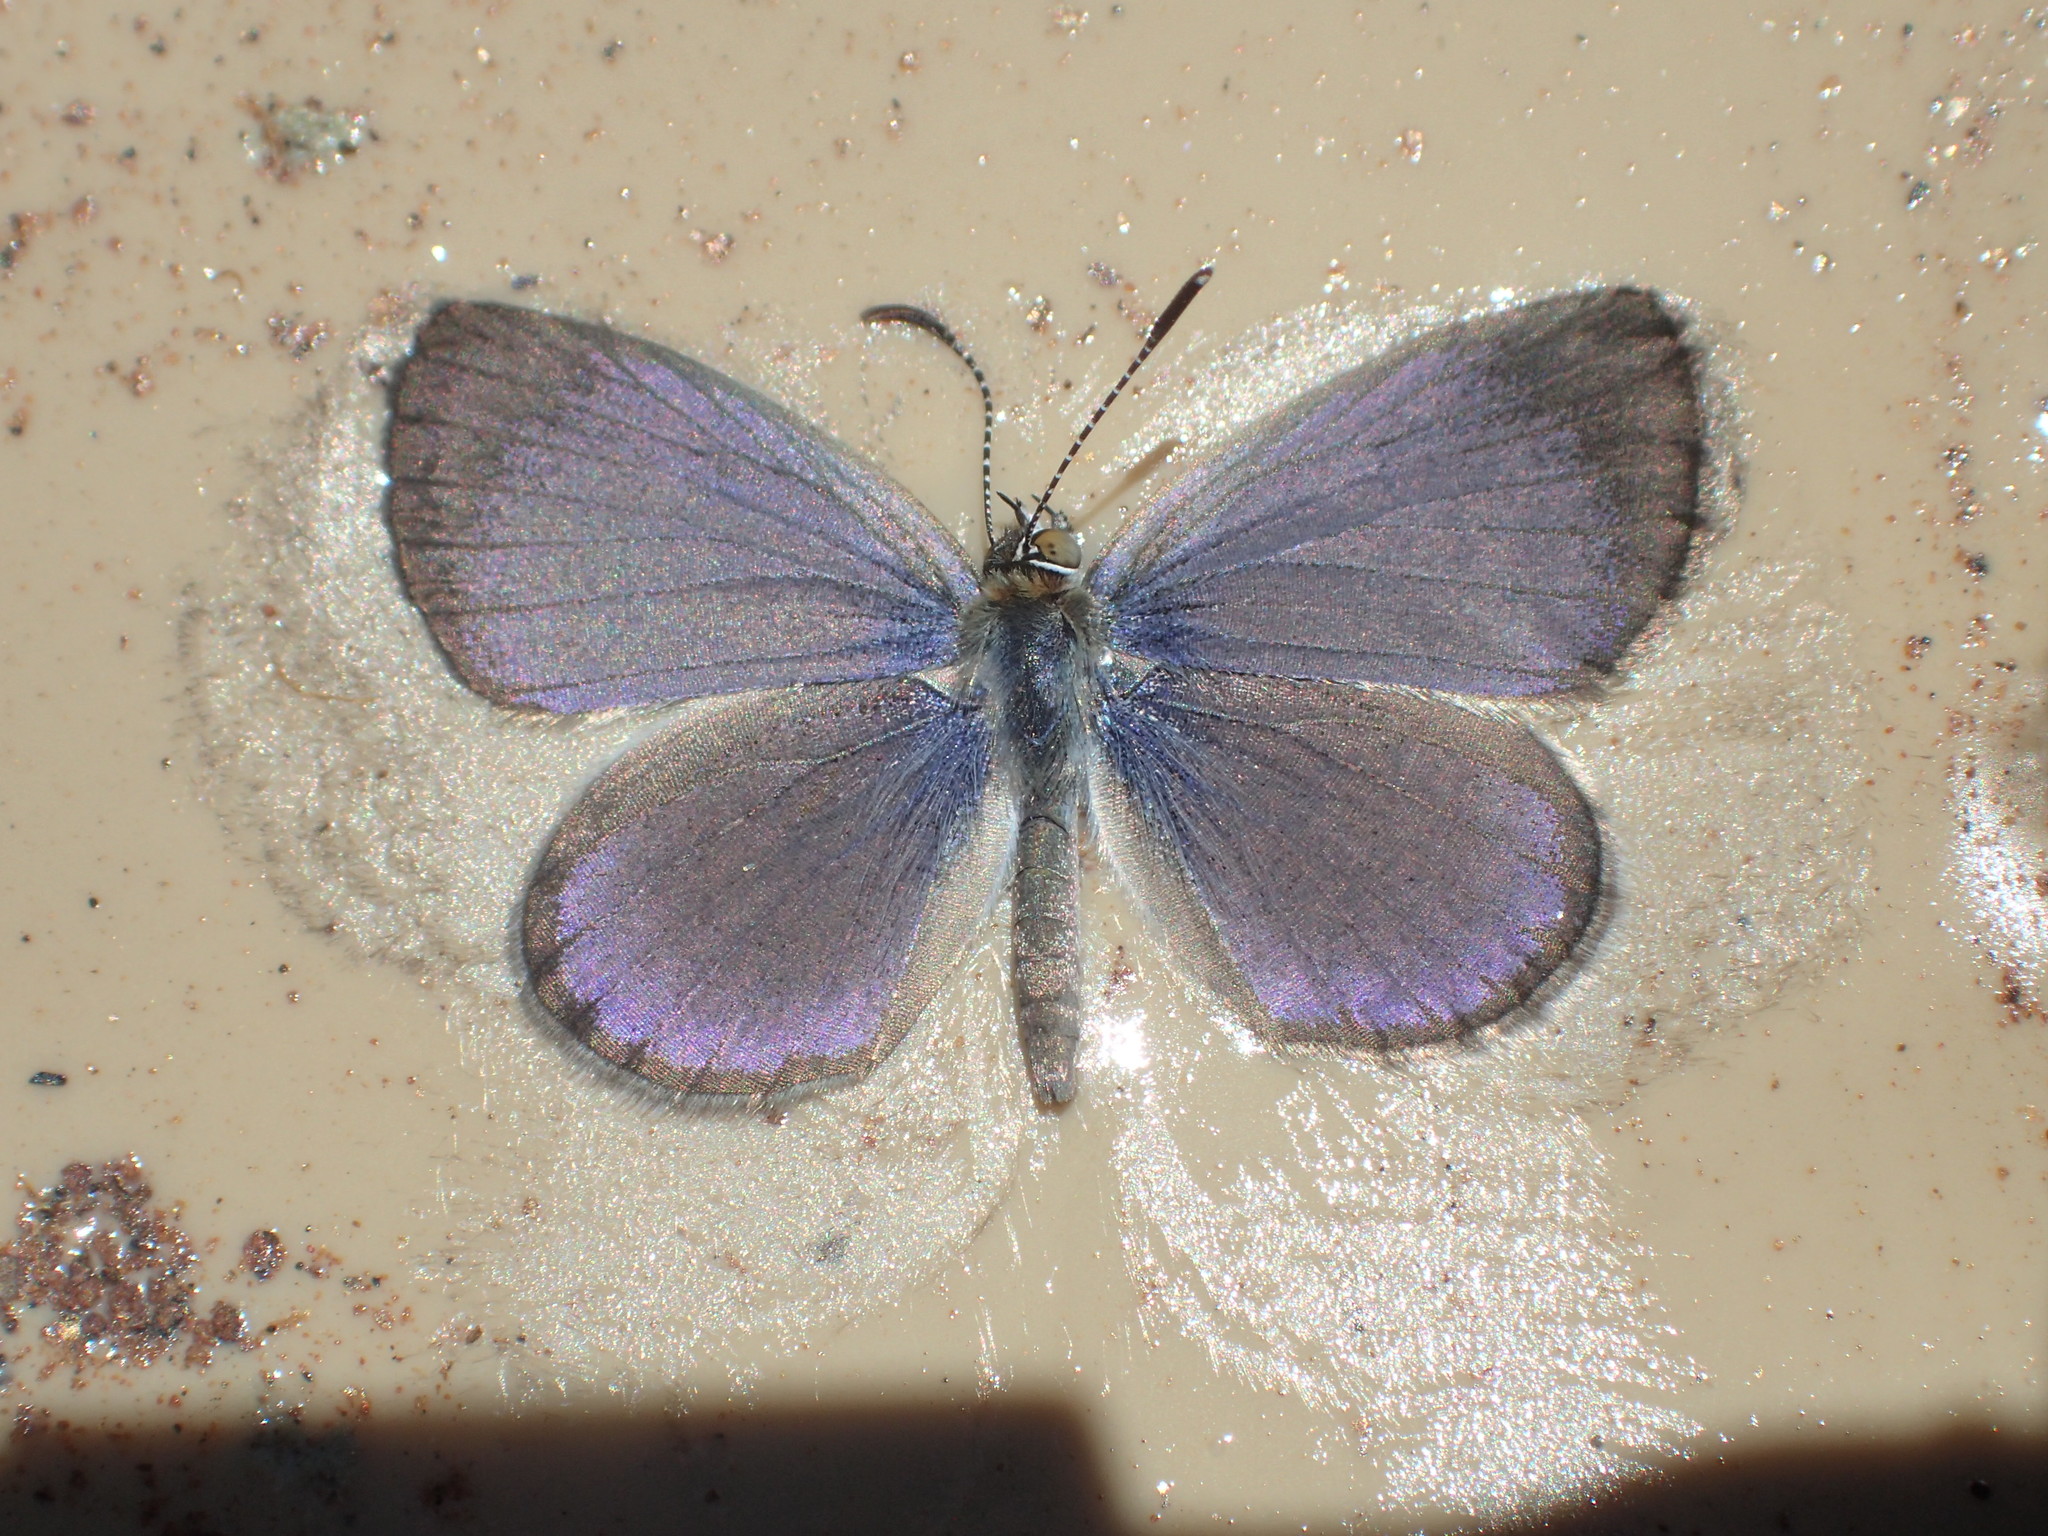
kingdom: Animalia
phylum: Arthropoda
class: Insecta
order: Lepidoptera
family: Lycaenidae
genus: Zizina
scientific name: Zizina labradus
